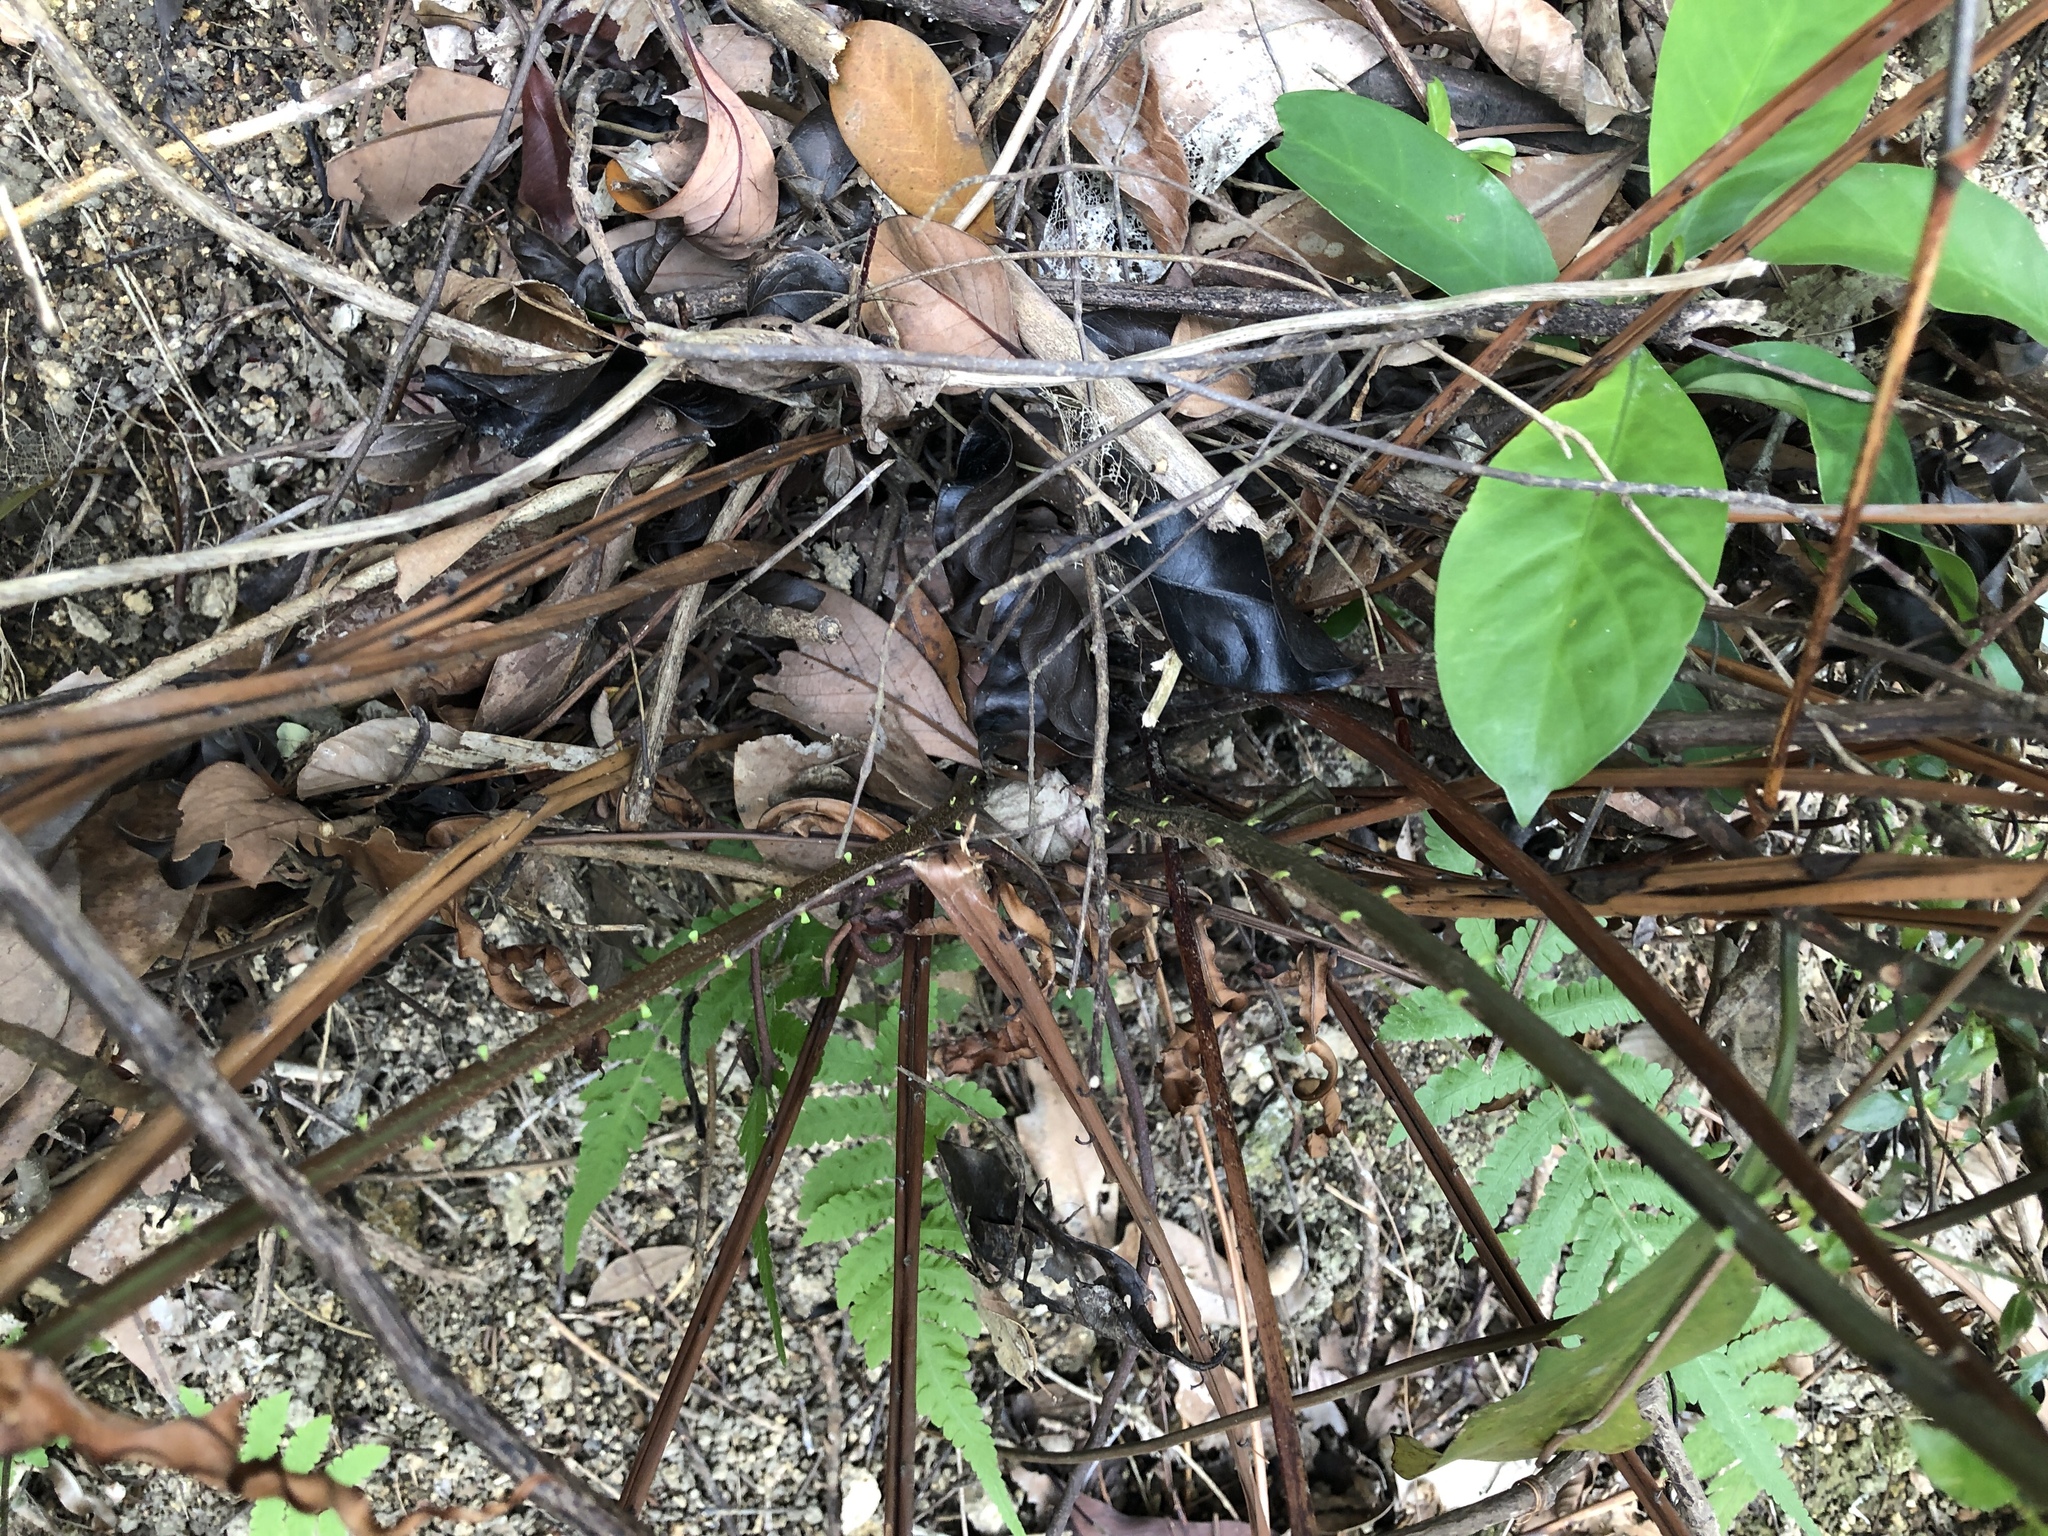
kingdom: Plantae
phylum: Tracheophyta
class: Polypodiopsida
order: Polypodiales
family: Blechnaceae
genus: Blechnopsis
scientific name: Blechnopsis orientalis
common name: Oriental blechnum
